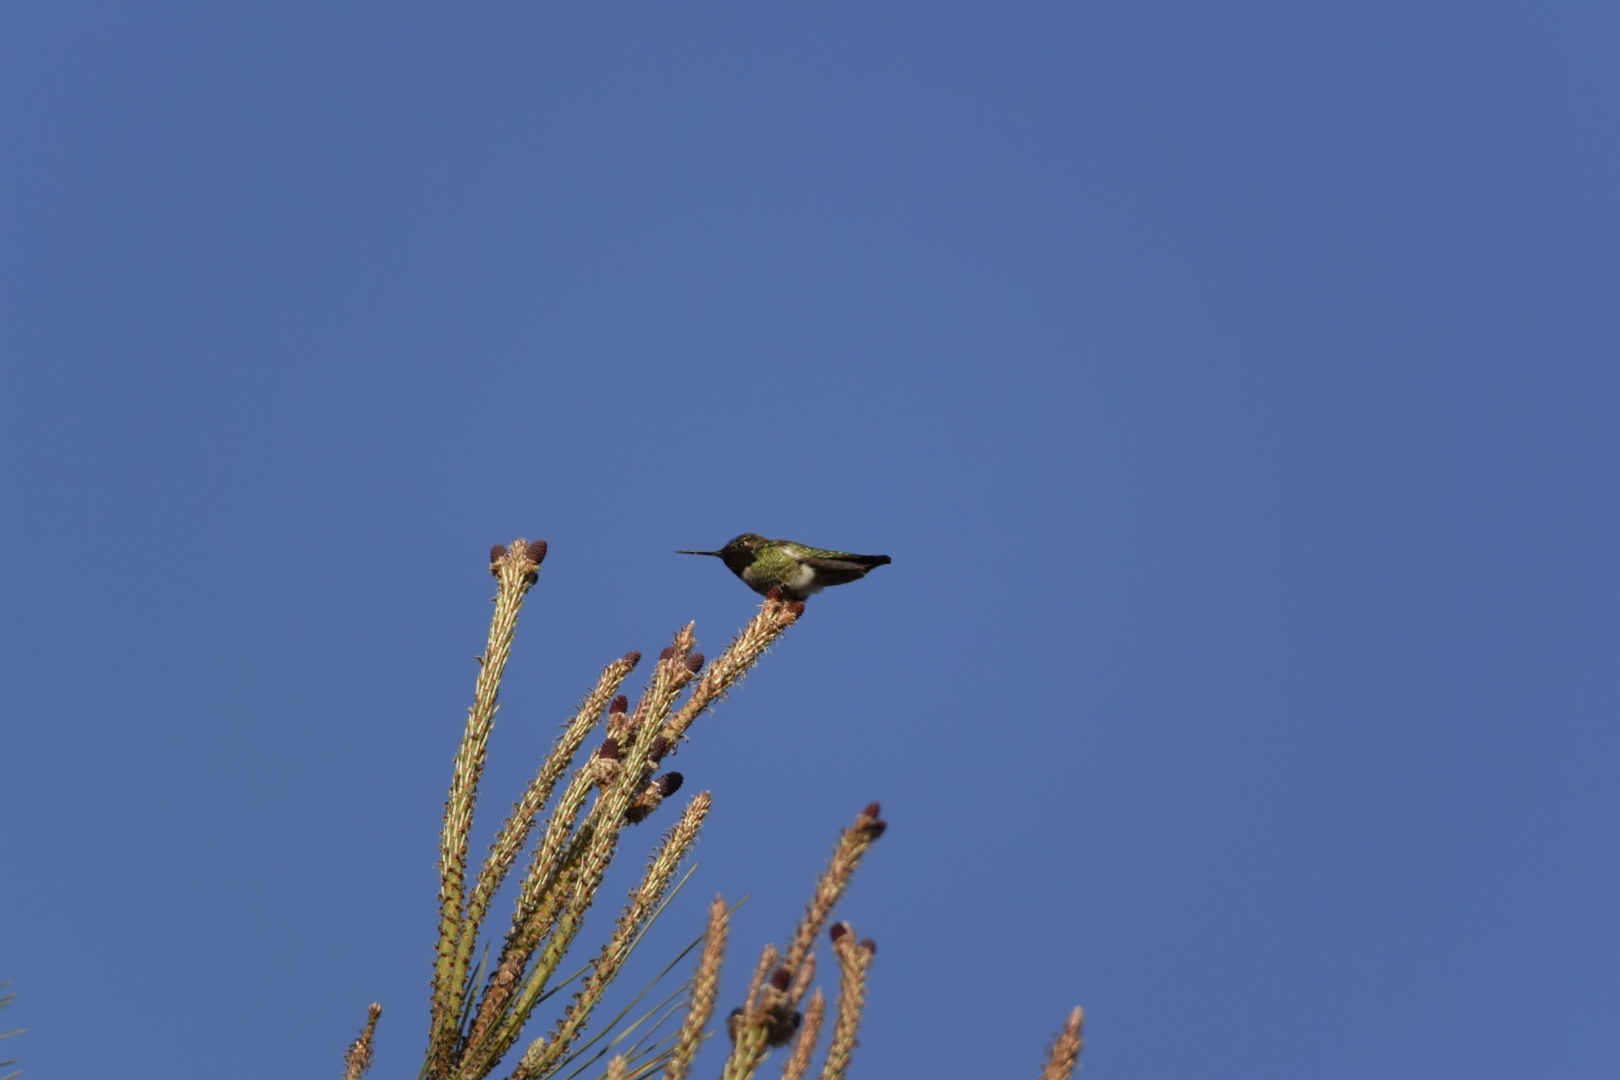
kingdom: Animalia
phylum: Chordata
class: Aves
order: Apodiformes
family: Trochilidae
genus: Calypte
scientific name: Calypte anna
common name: Anna's hummingbird
